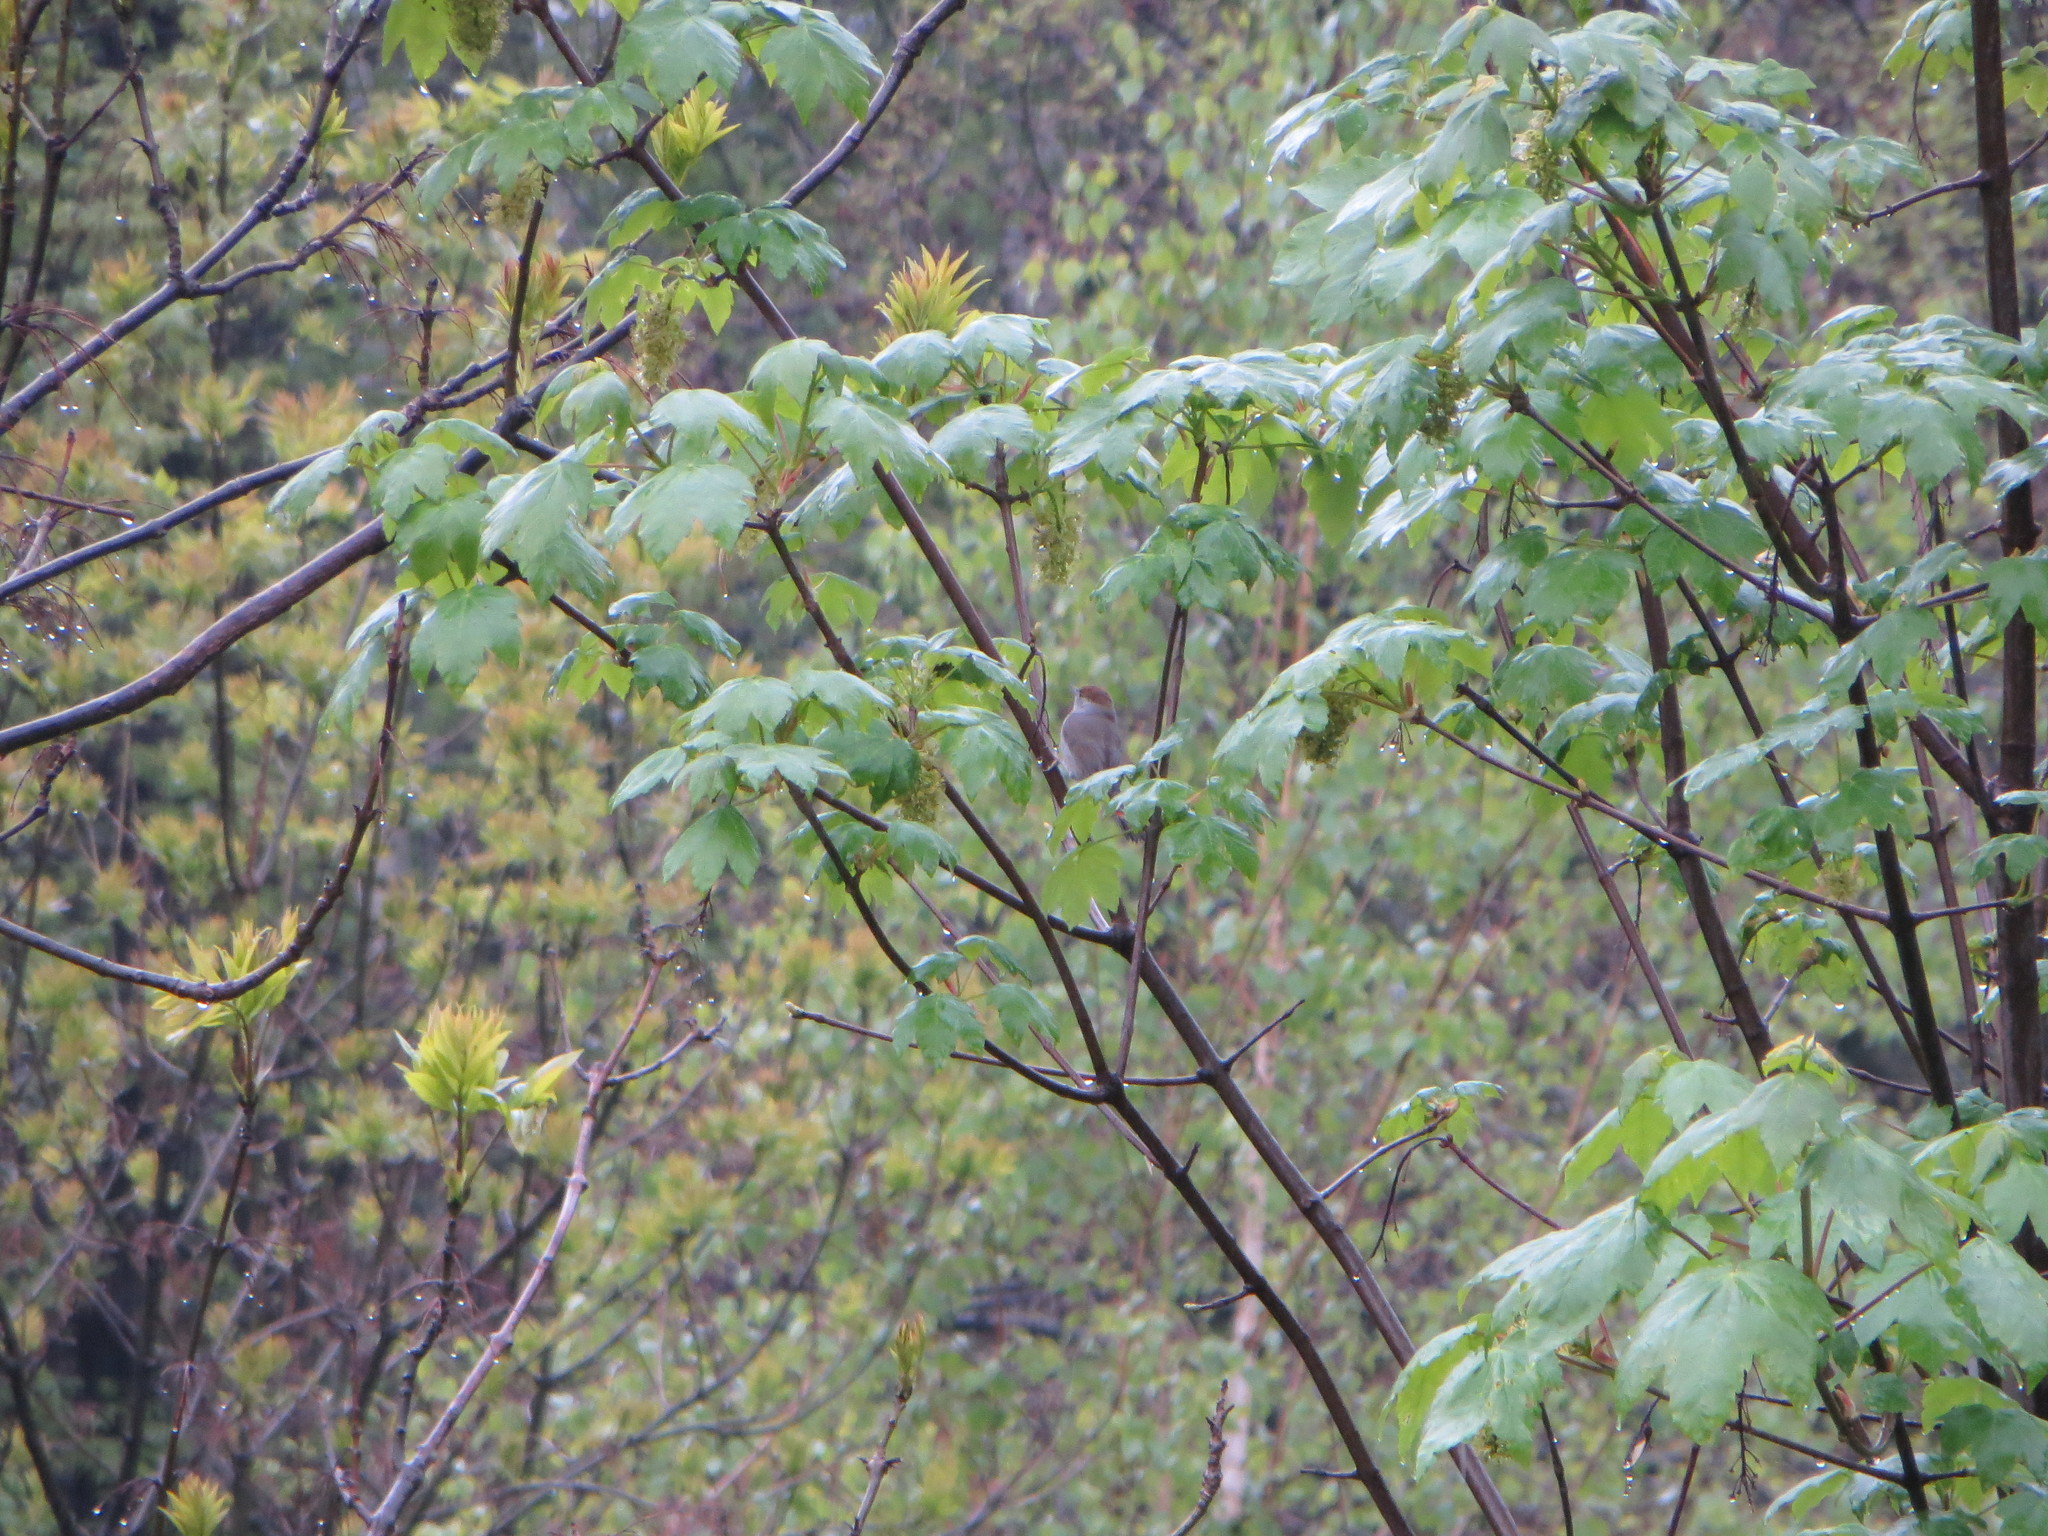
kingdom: Animalia
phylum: Chordata
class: Aves
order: Passeriformes
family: Sylviidae
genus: Sylvia
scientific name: Sylvia atricapilla
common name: Eurasian blackcap
